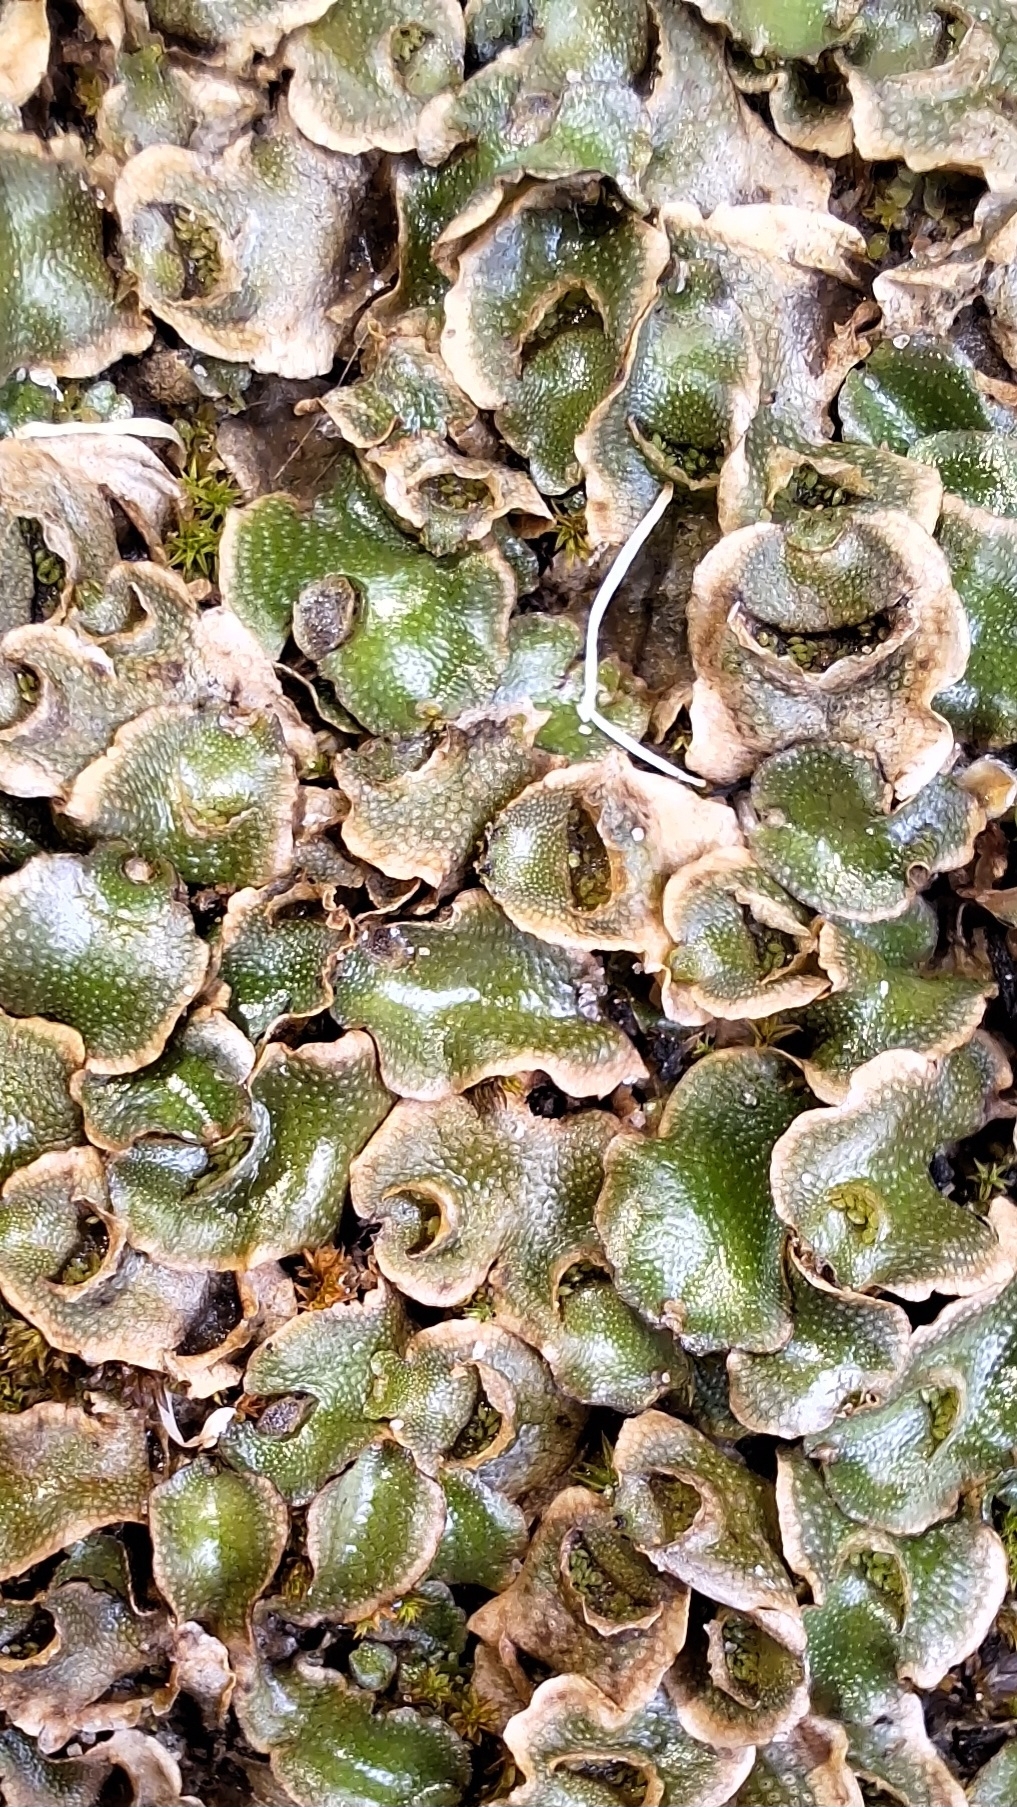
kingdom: Plantae
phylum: Marchantiophyta
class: Marchantiopsida
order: Lunulariales
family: Lunulariaceae
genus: Lunularia
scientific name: Lunularia cruciata
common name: Crescent-cup liverwort
